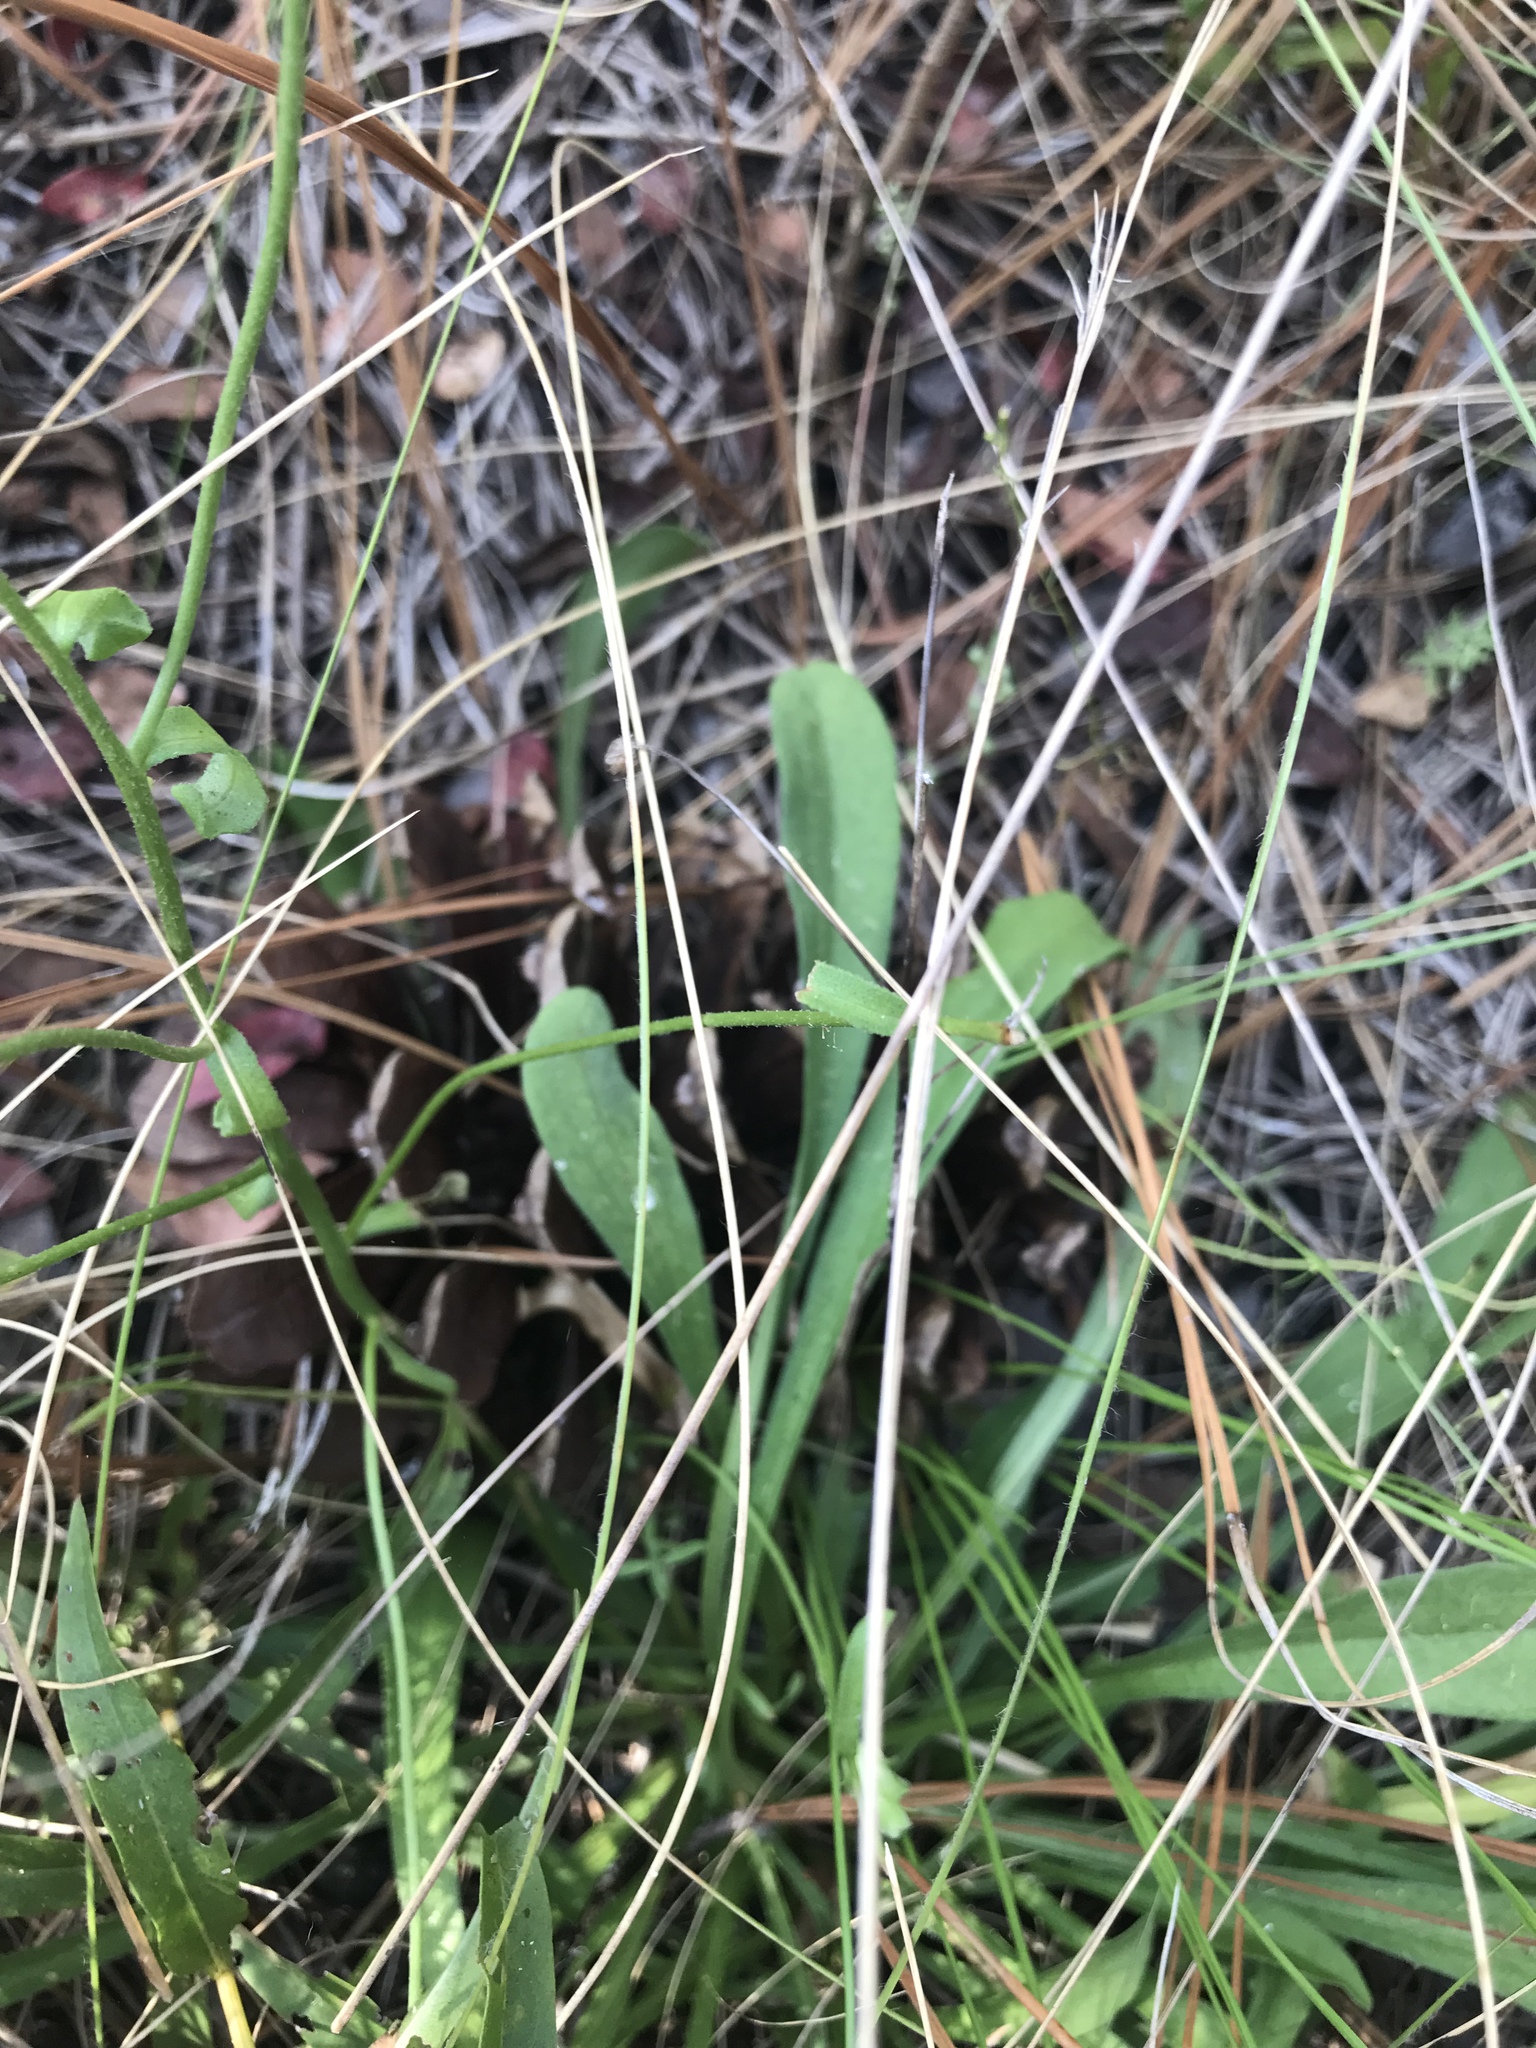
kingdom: Plantae
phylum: Tracheophyta
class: Magnoliopsida
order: Asterales
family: Asteraceae
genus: Carphephorus
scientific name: Carphephorus bellidifolius
